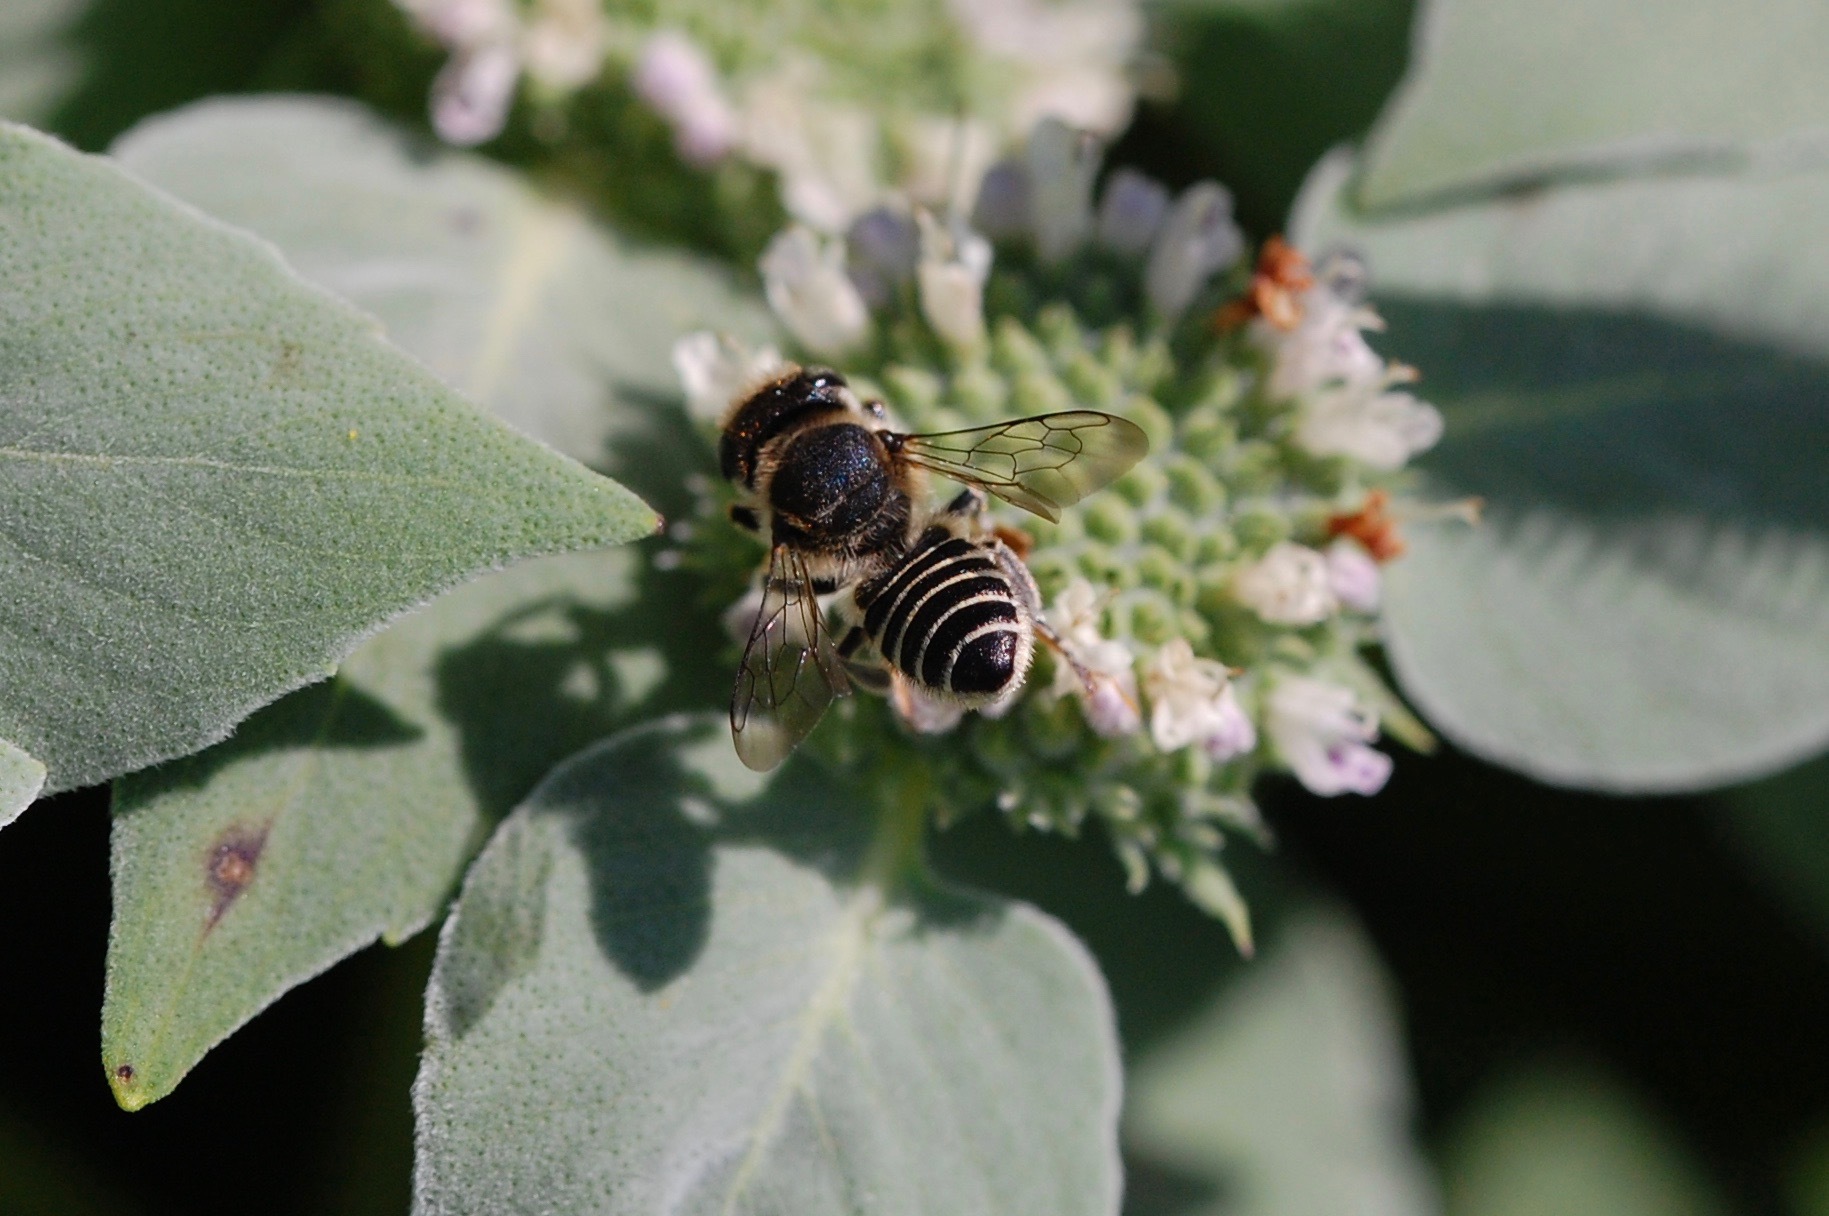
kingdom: Animalia
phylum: Arthropoda
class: Insecta
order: Hymenoptera
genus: Eutricharaea
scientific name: Eutricharaea
